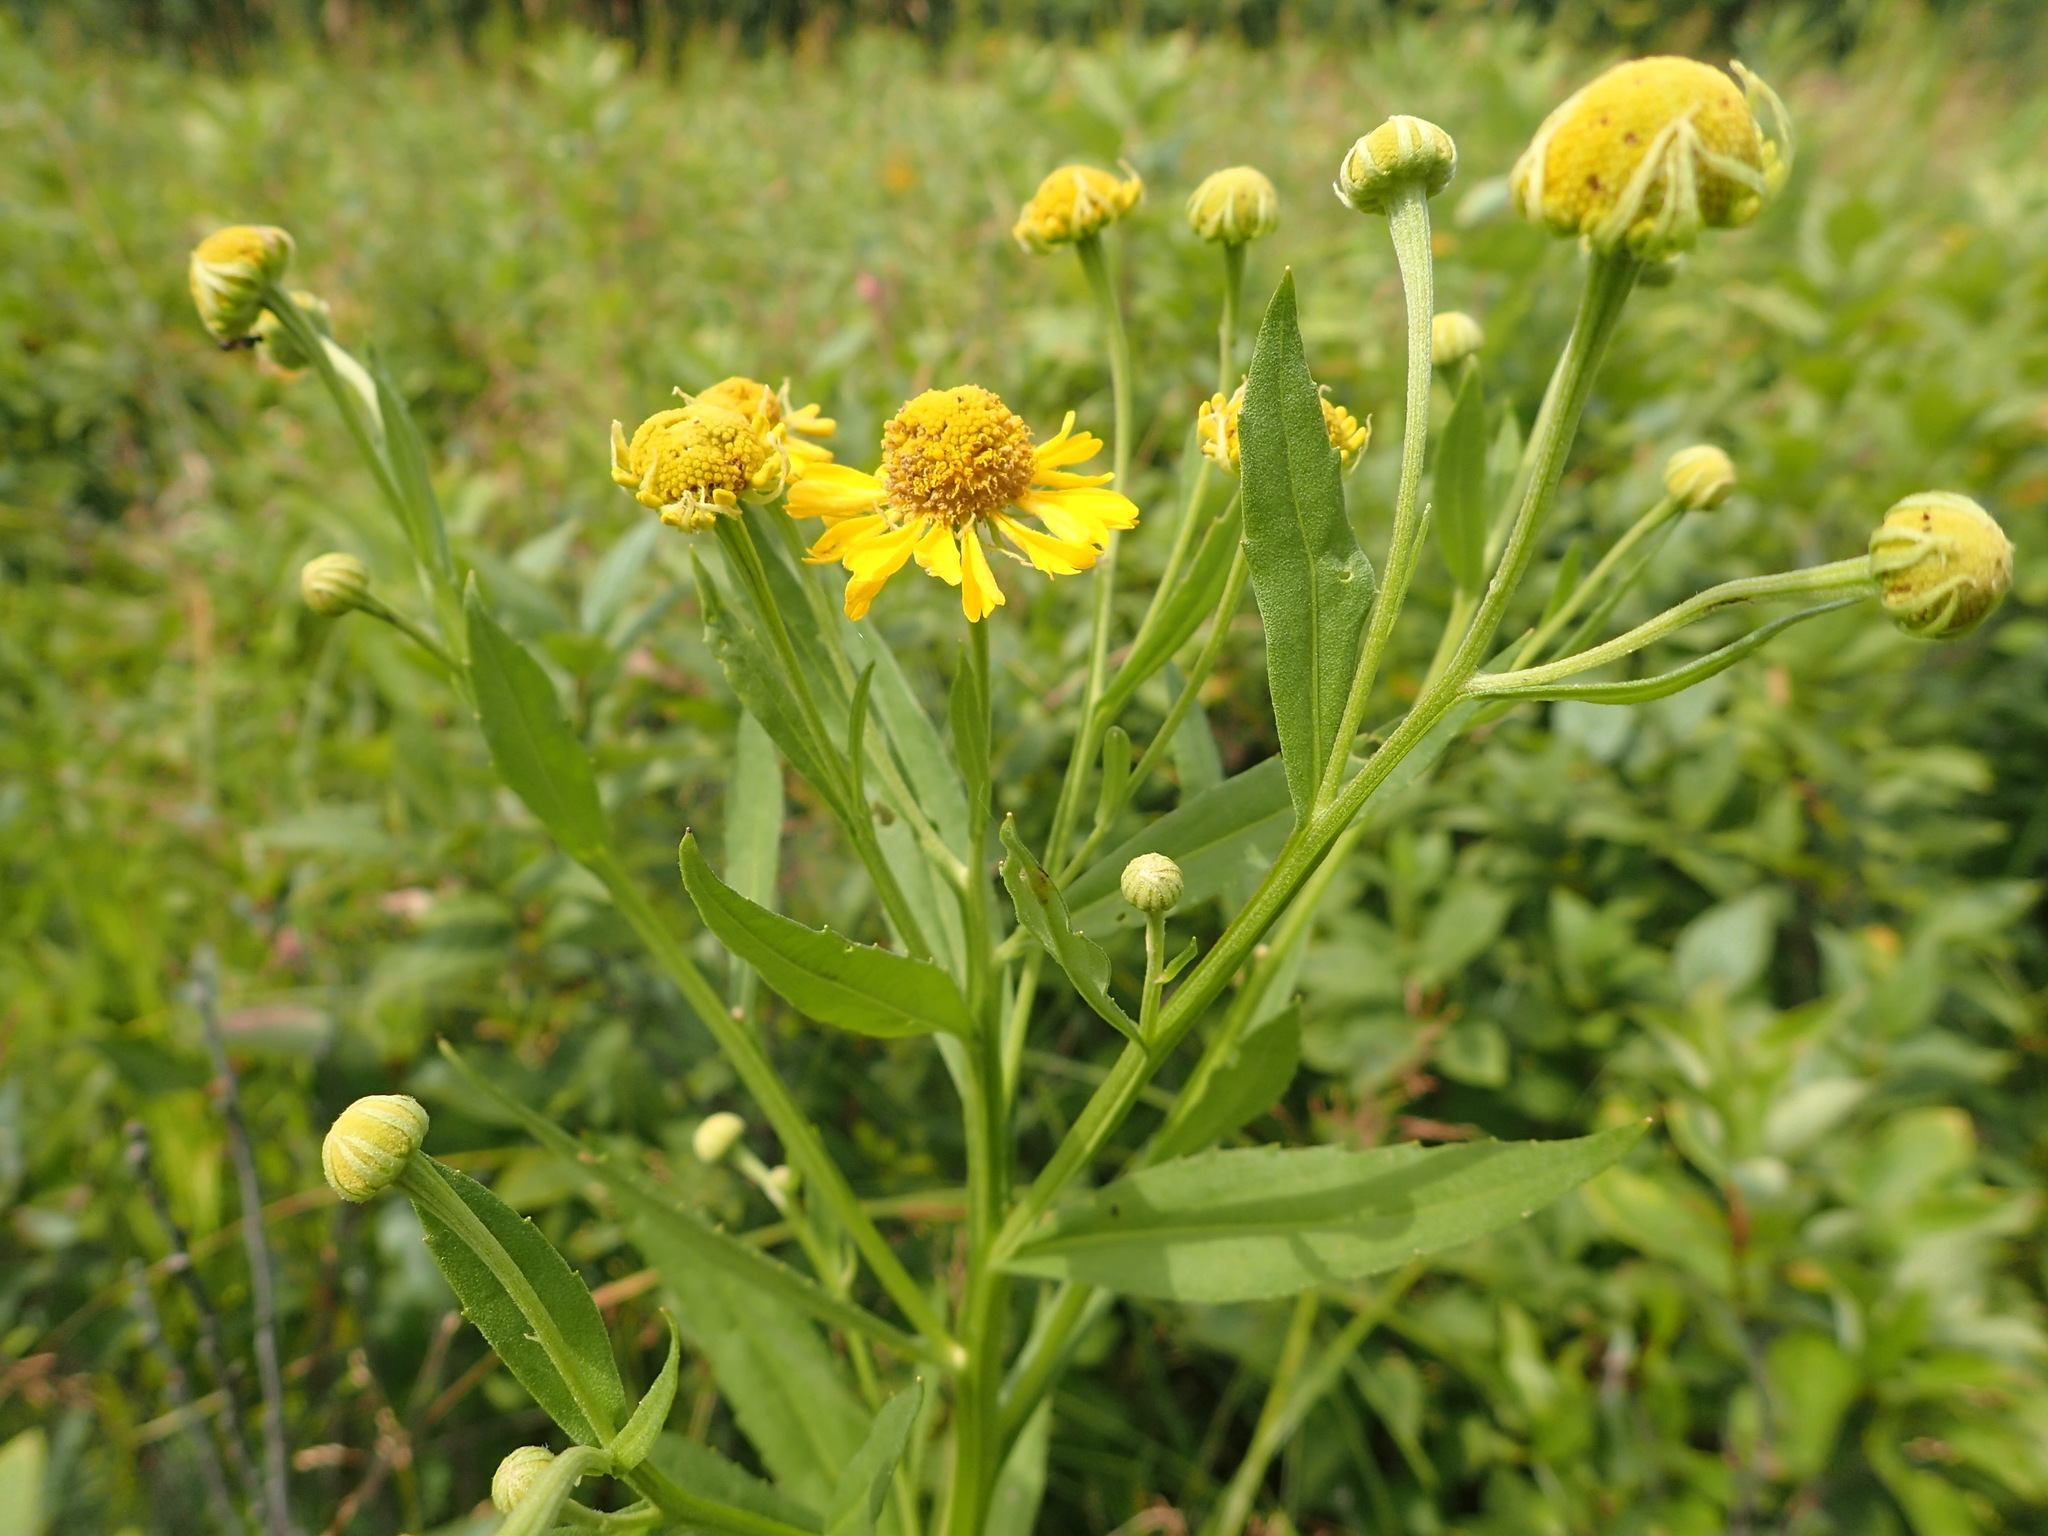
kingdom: Plantae
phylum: Tracheophyta
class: Magnoliopsida
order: Asterales
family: Asteraceae
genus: Helenium
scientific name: Helenium autumnale
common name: Sneezeweed
